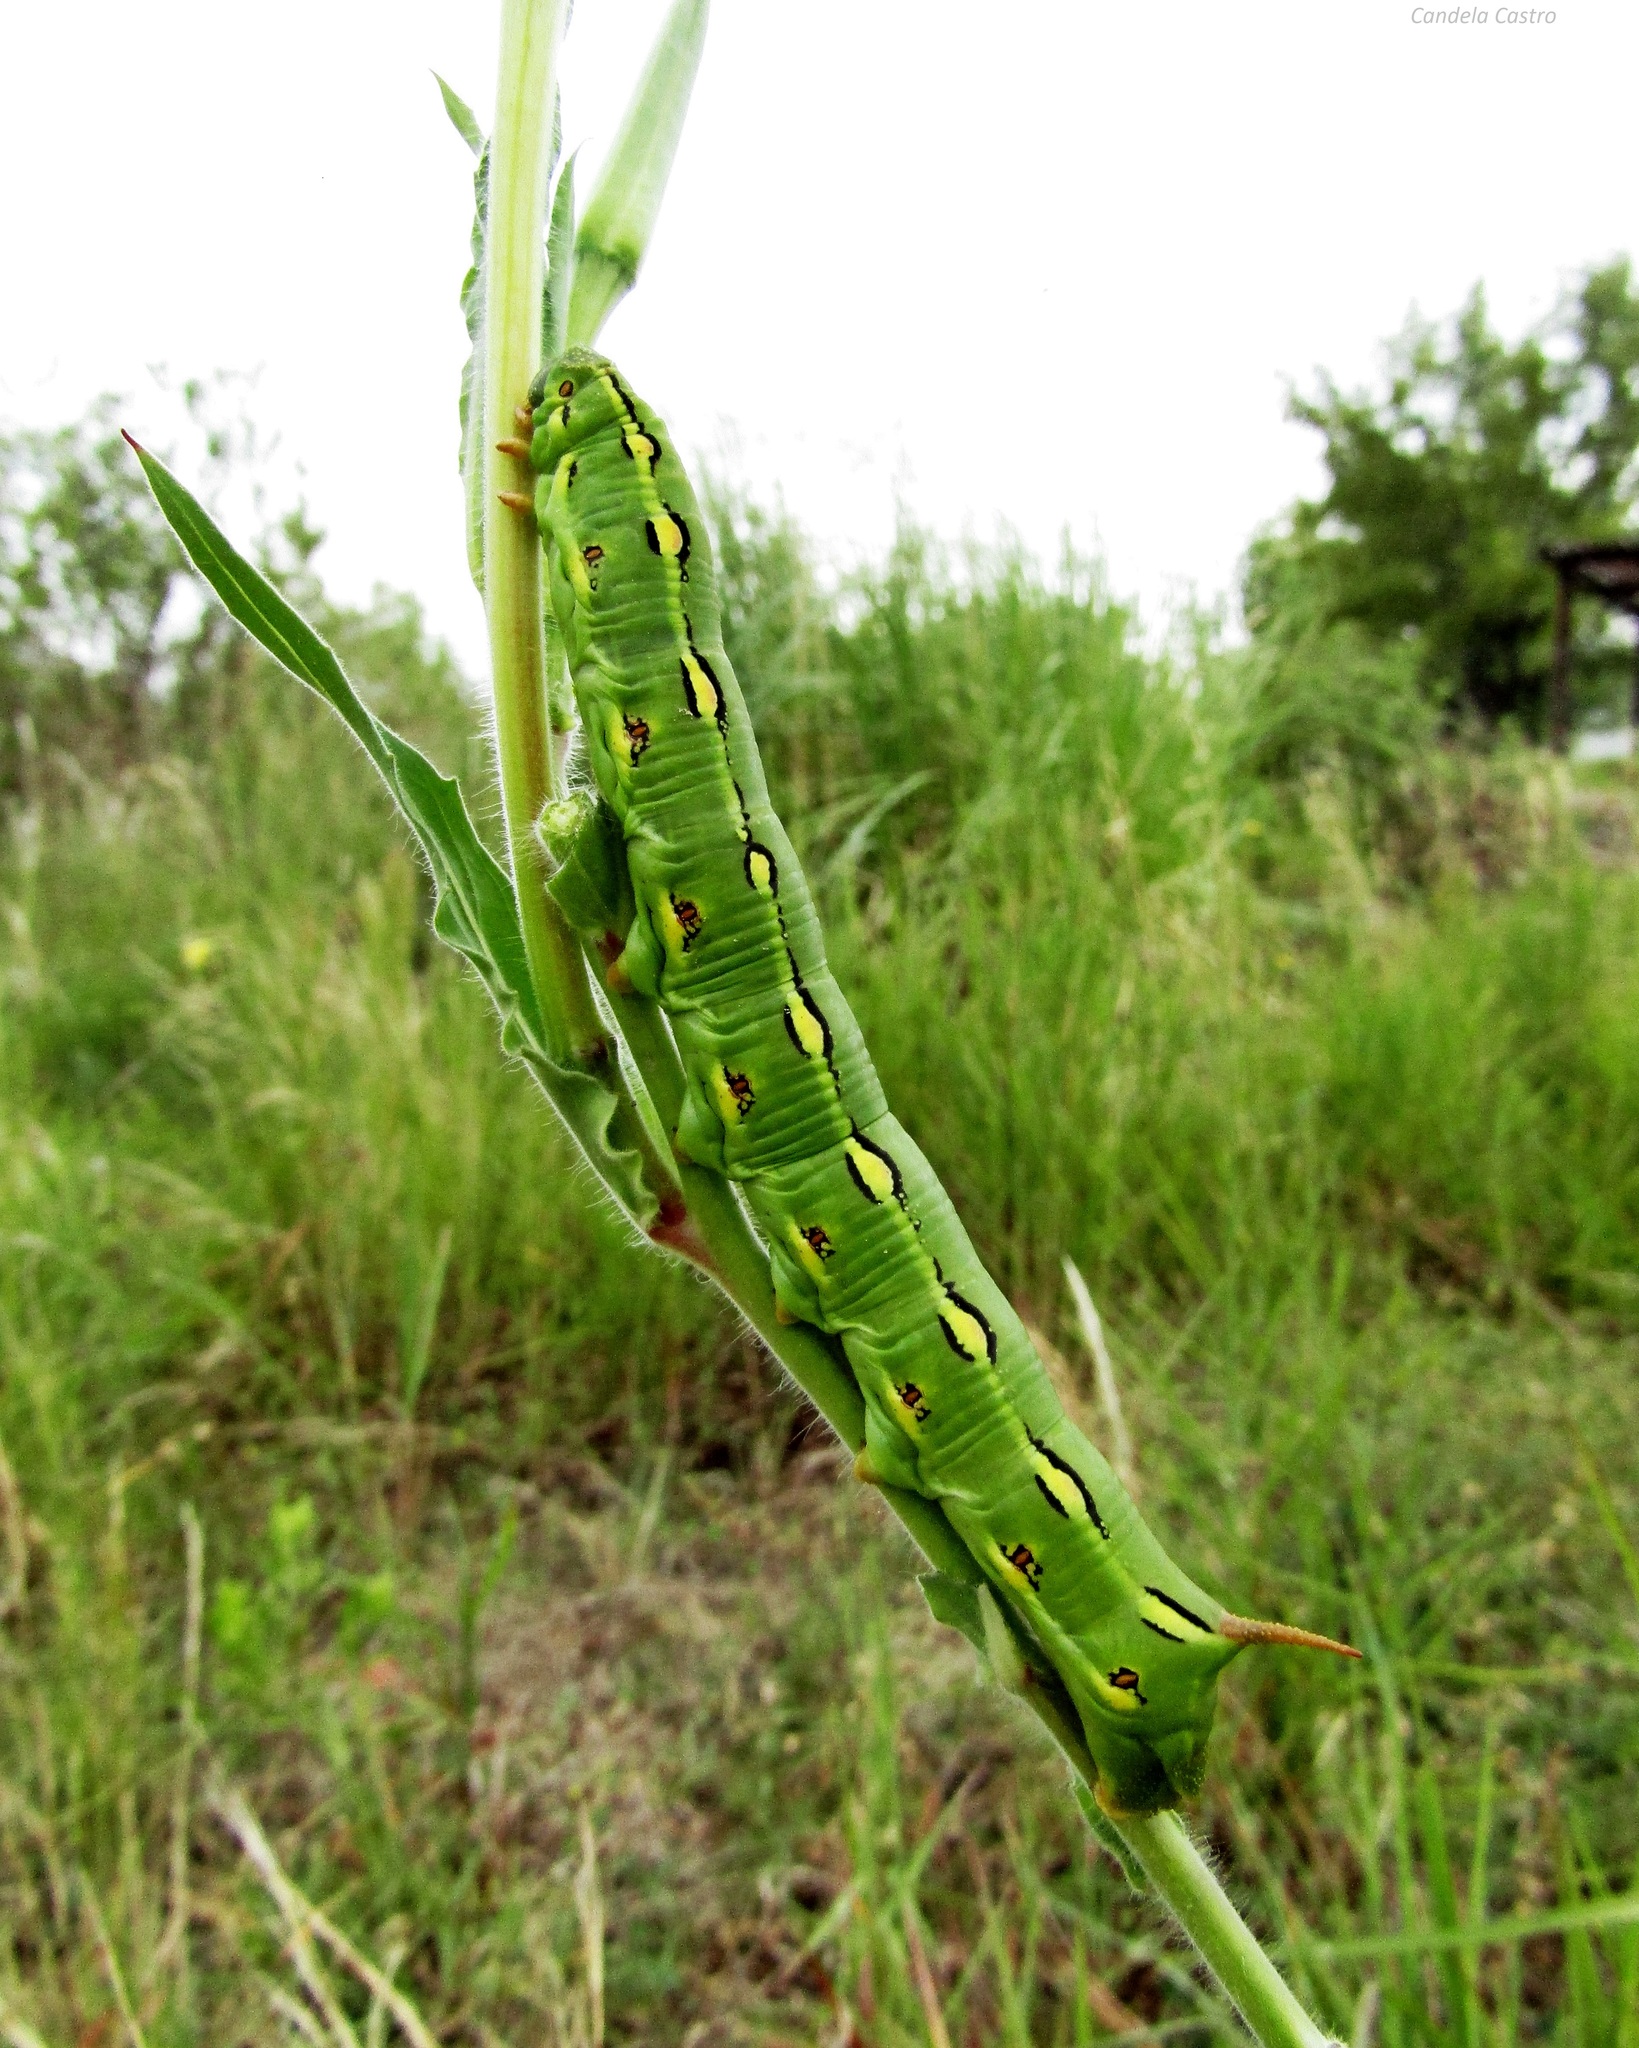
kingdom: Animalia
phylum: Arthropoda
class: Insecta
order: Lepidoptera
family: Sphingidae
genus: Hyles
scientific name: Hyles lineata
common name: White-lined sphinx
